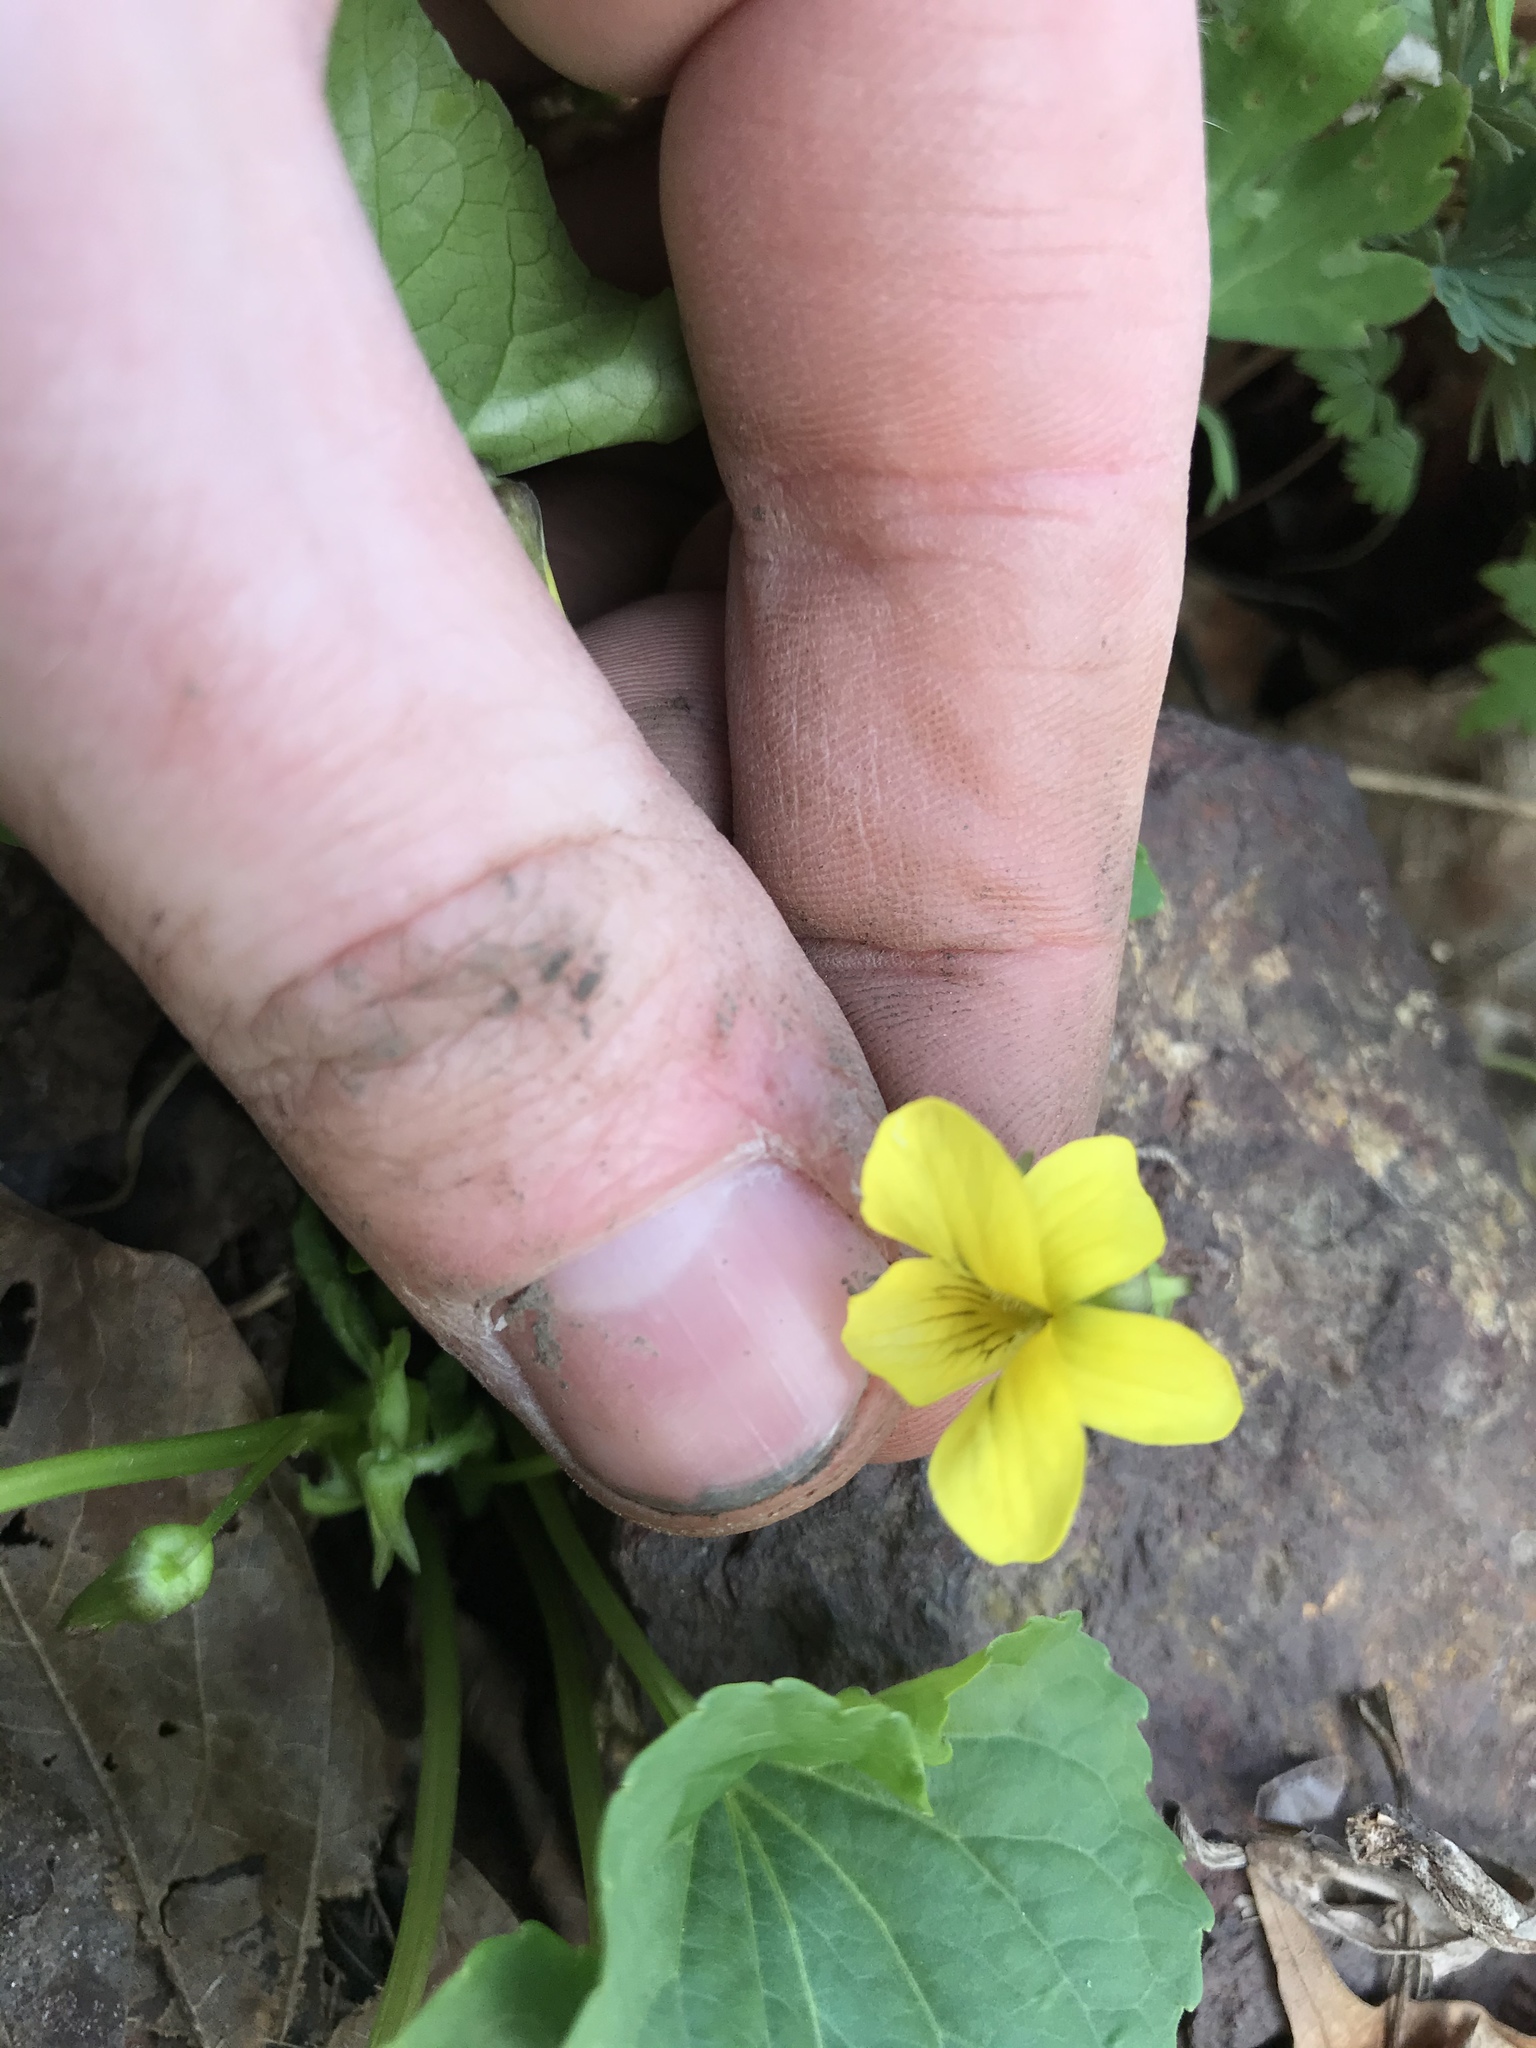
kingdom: Plantae
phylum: Tracheophyta
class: Magnoliopsida
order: Malpighiales
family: Violaceae
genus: Viola
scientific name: Viola eriocarpa
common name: Smooth yellow violet
